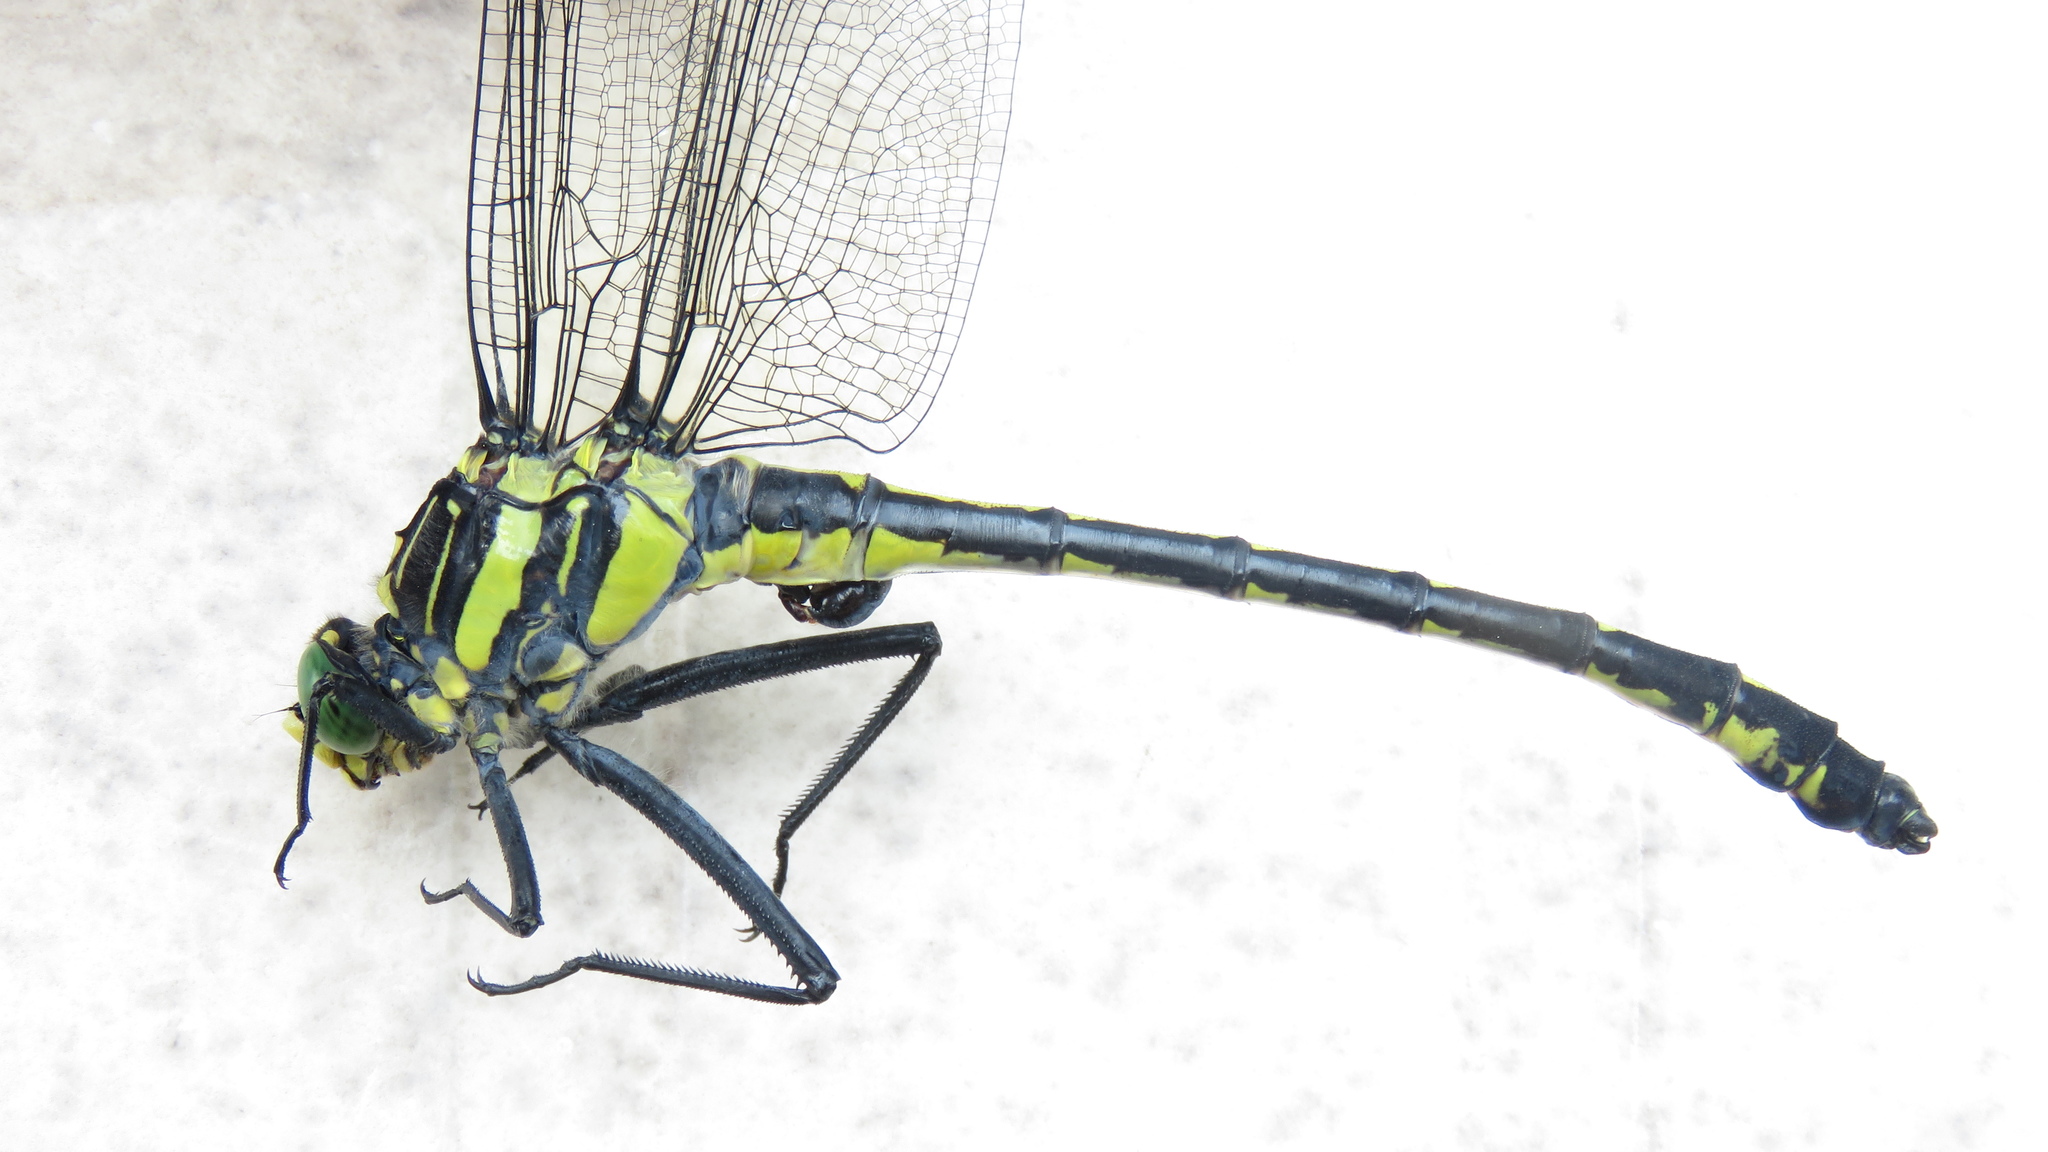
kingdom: Animalia
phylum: Arthropoda
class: Insecta
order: Odonata
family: Gomphidae
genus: Hagenius
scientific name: Hagenius brevistylus
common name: Dragonhunter
